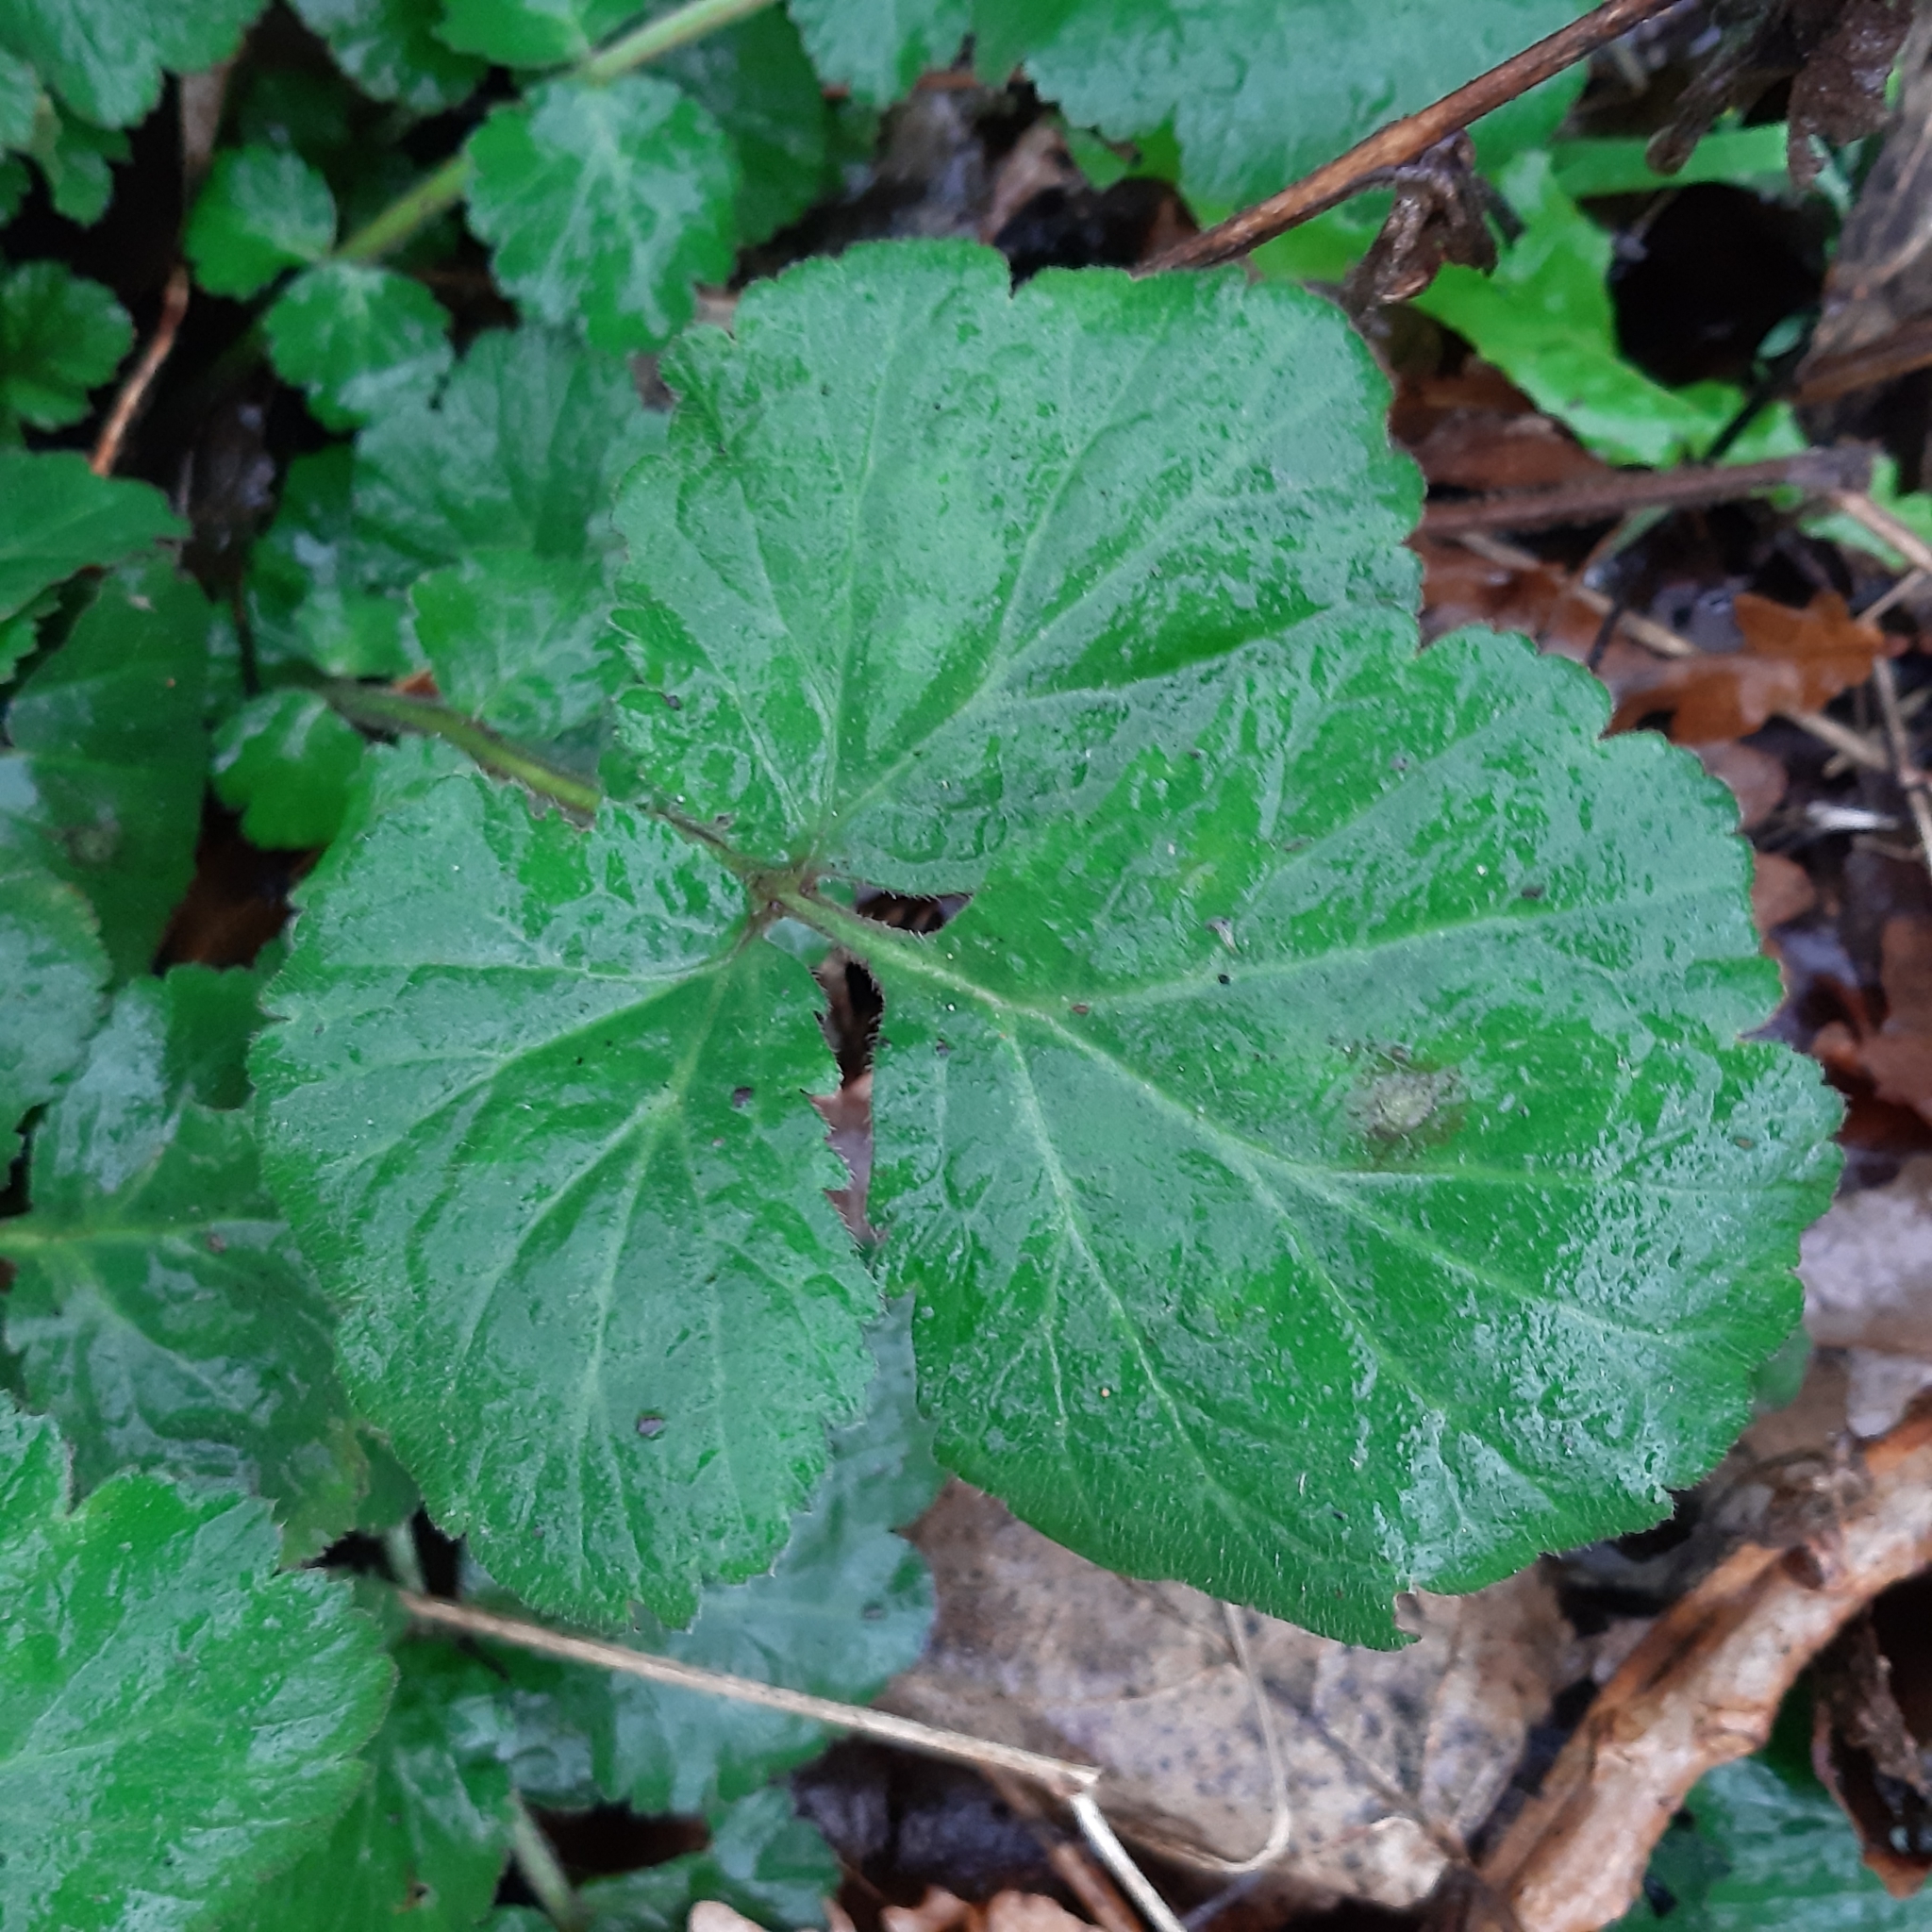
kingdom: Plantae
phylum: Tracheophyta
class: Magnoliopsida
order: Rosales
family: Rosaceae
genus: Geum
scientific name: Geum urbanum
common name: Wood avens
